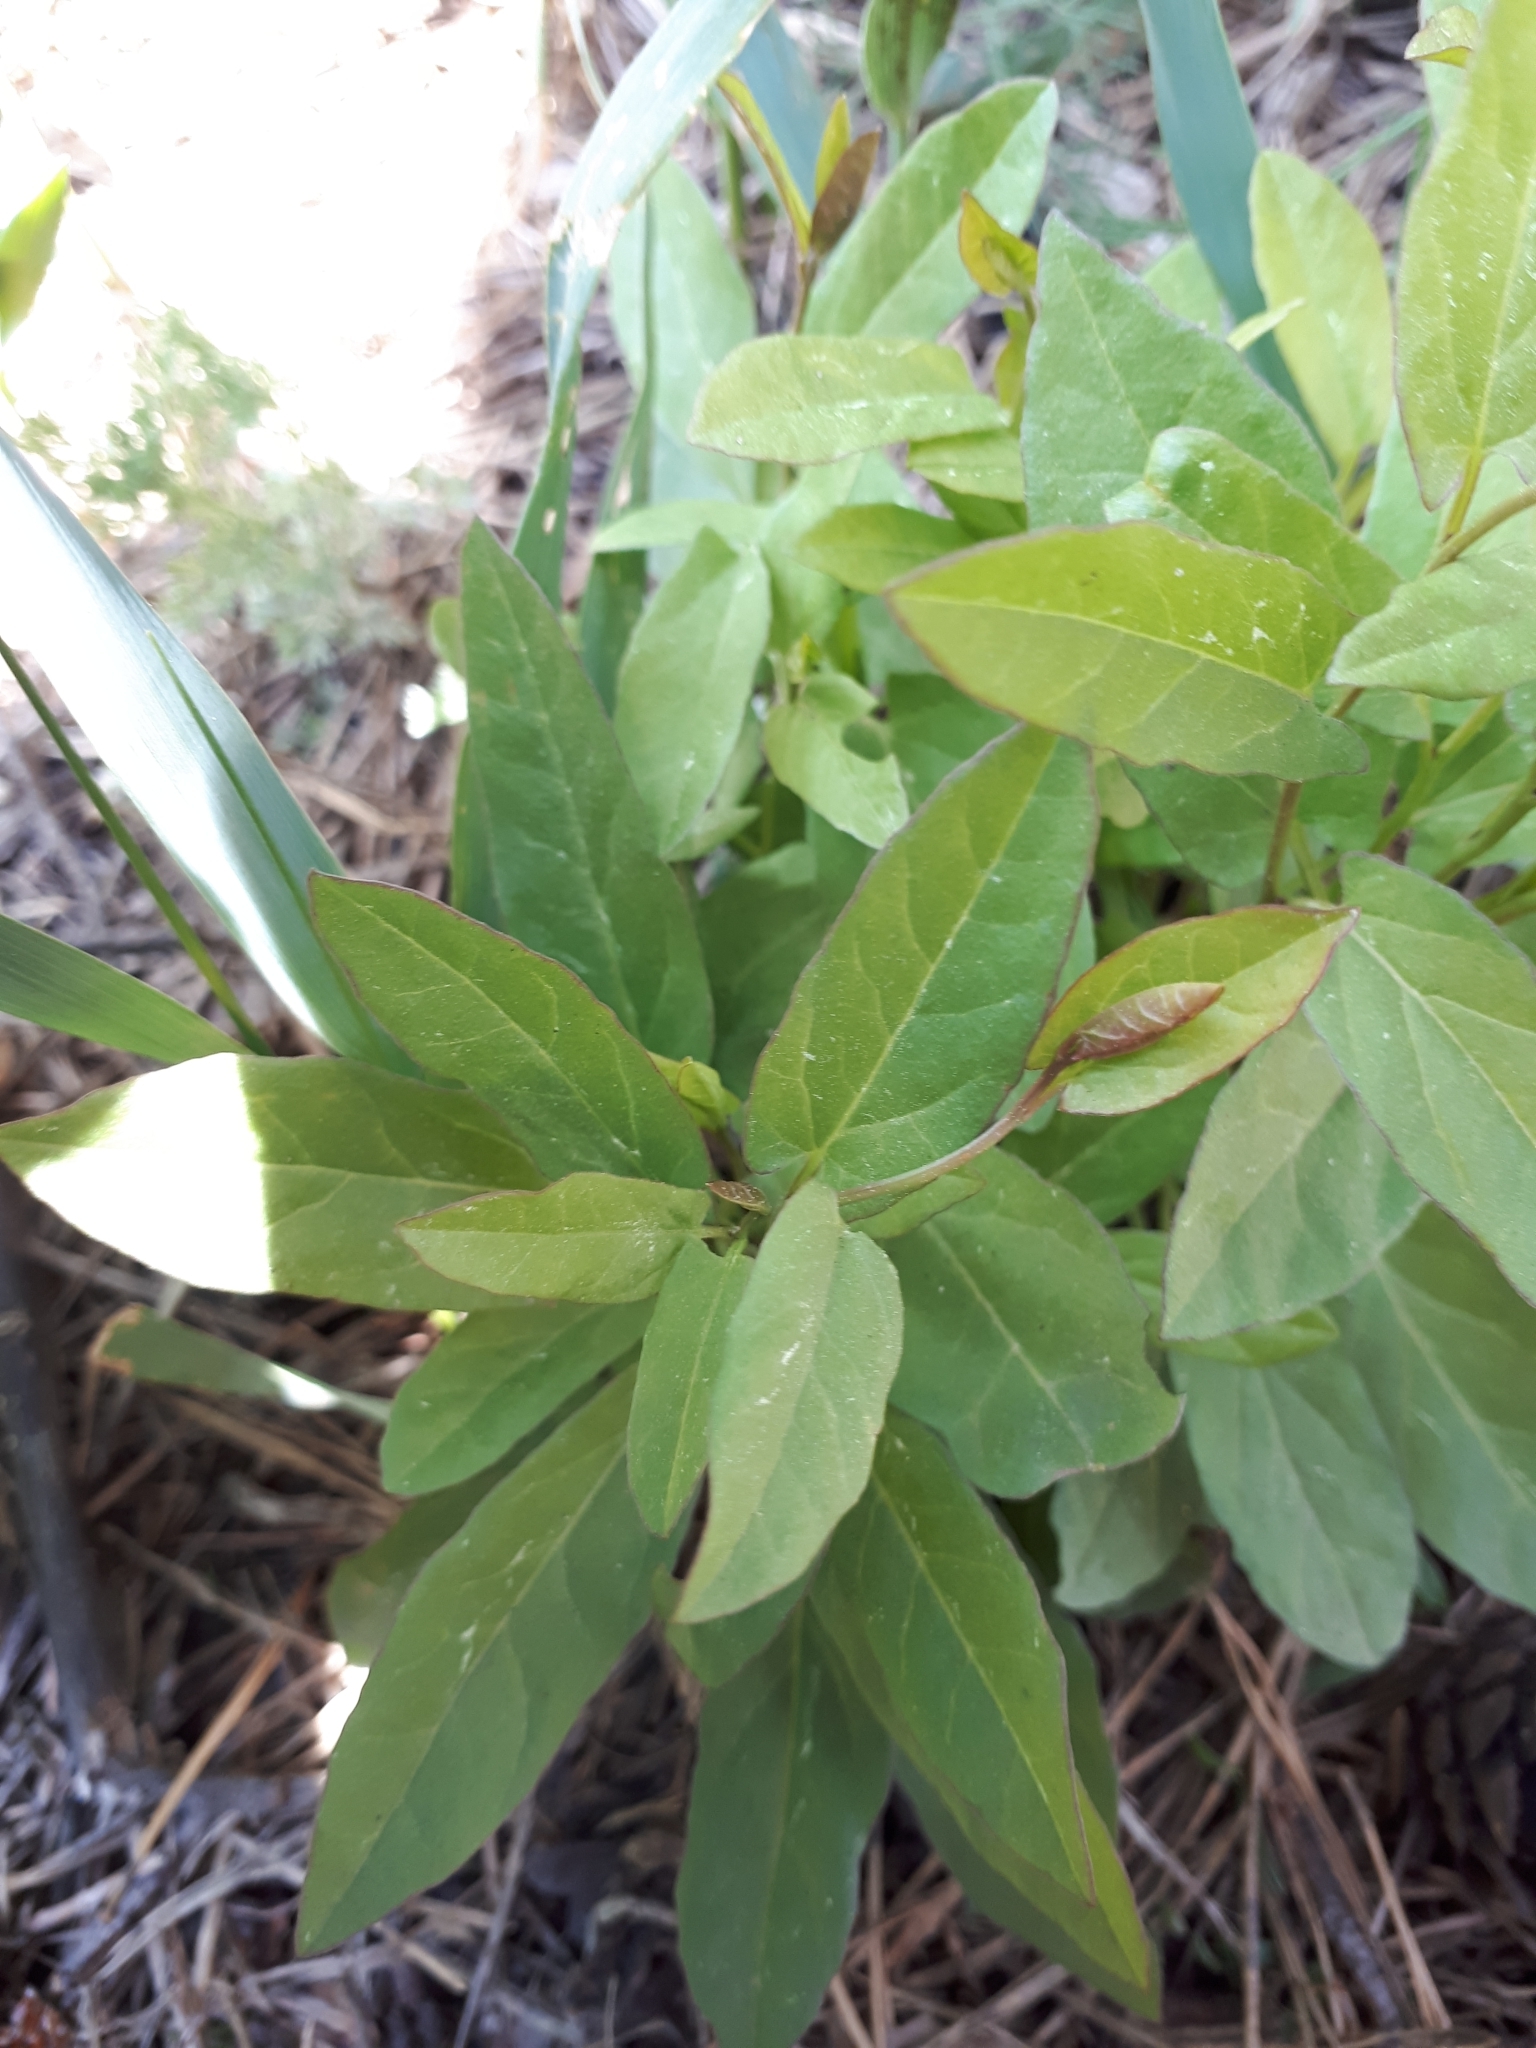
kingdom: Plantae
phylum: Tracheophyta
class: Magnoliopsida
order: Solanales
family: Convolvulaceae
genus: Convolvulus
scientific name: Convolvulus arvensis
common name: Field bindweed
